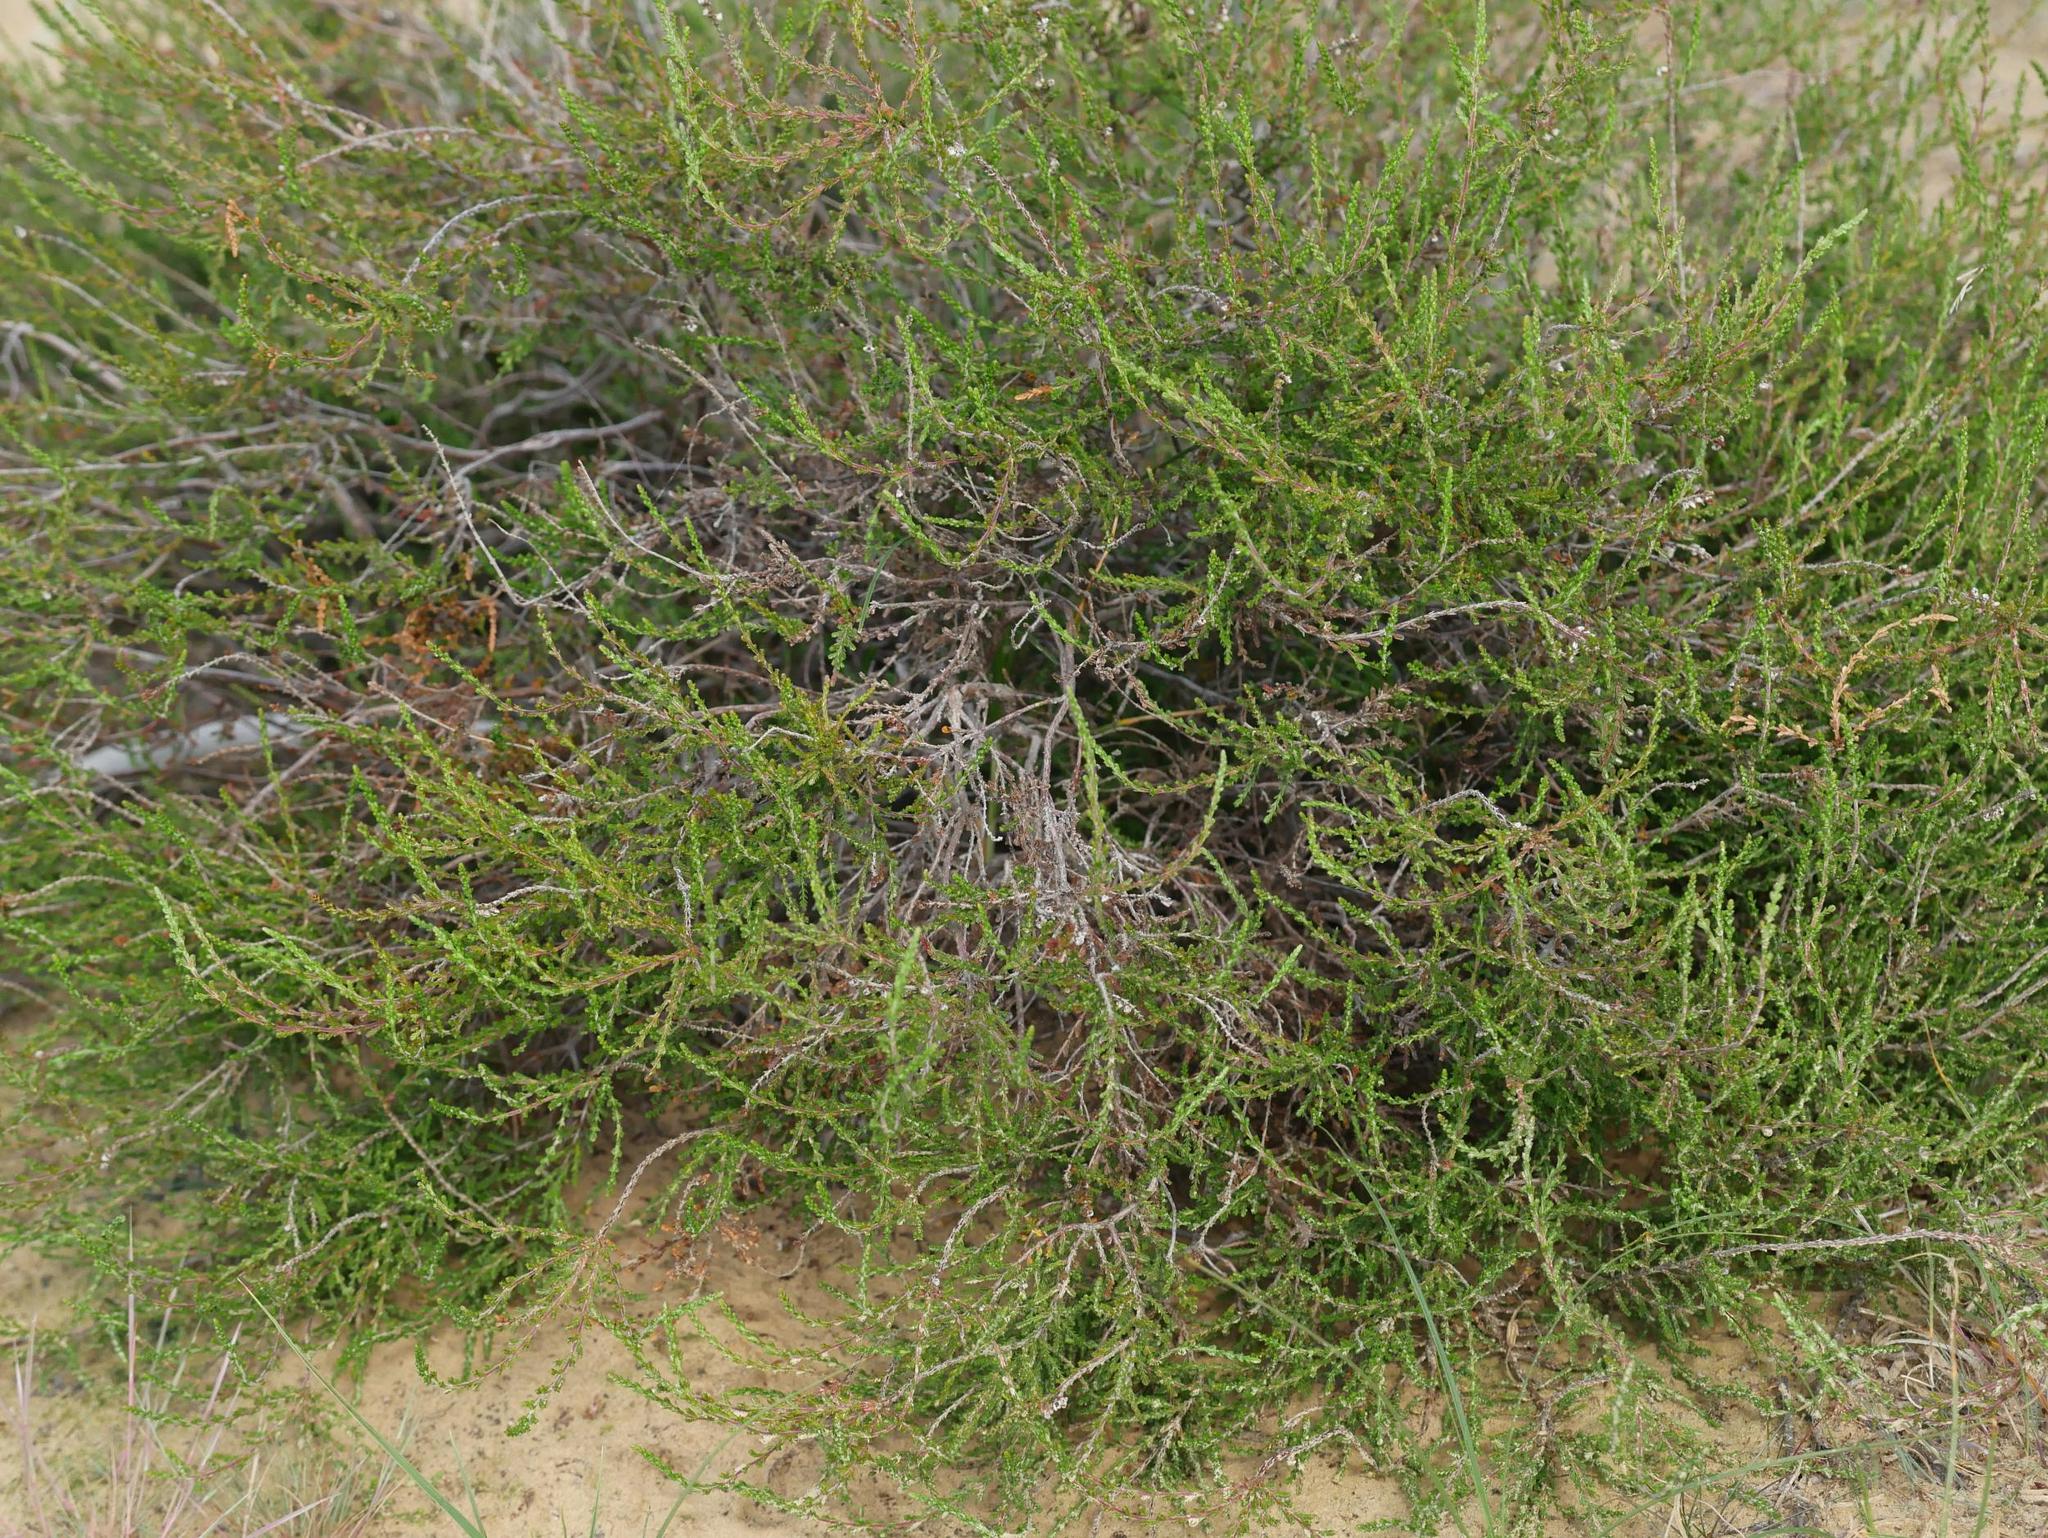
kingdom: Plantae
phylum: Tracheophyta
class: Magnoliopsida
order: Ericales
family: Ericaceae
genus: Calluna
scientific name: Calluna vulgaris
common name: Heather
